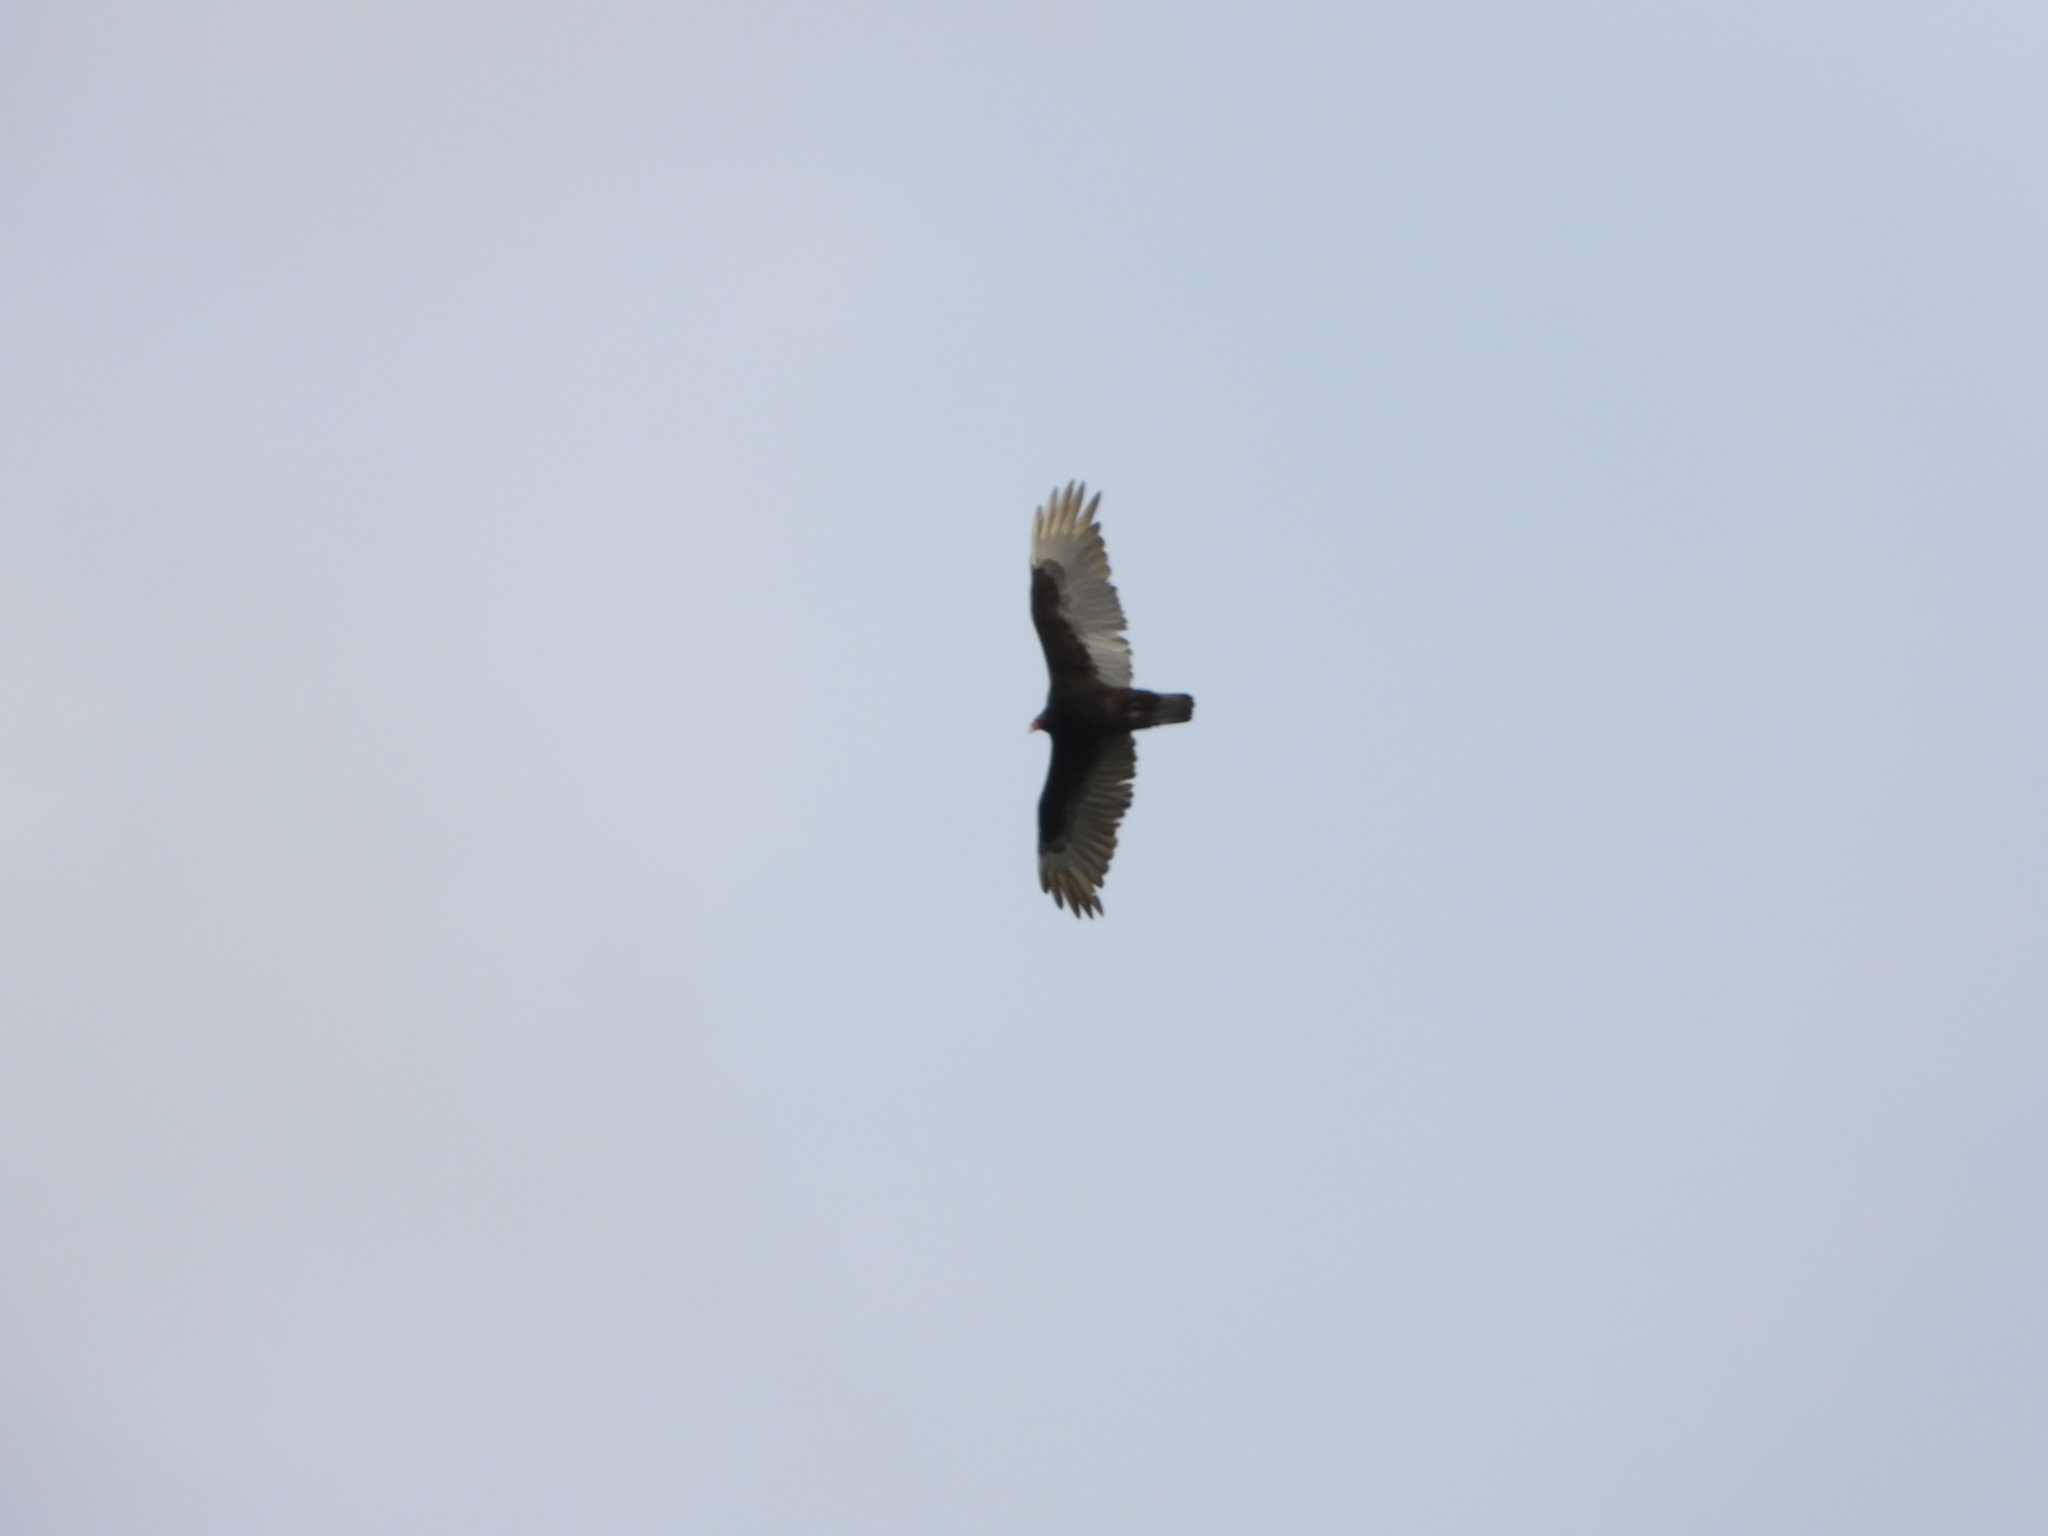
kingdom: Animalia
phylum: Chordata
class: Aves
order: Accipitriformes
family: Cathartidae
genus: Cathartes
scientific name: Cathartes aura
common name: Turkey vulture
